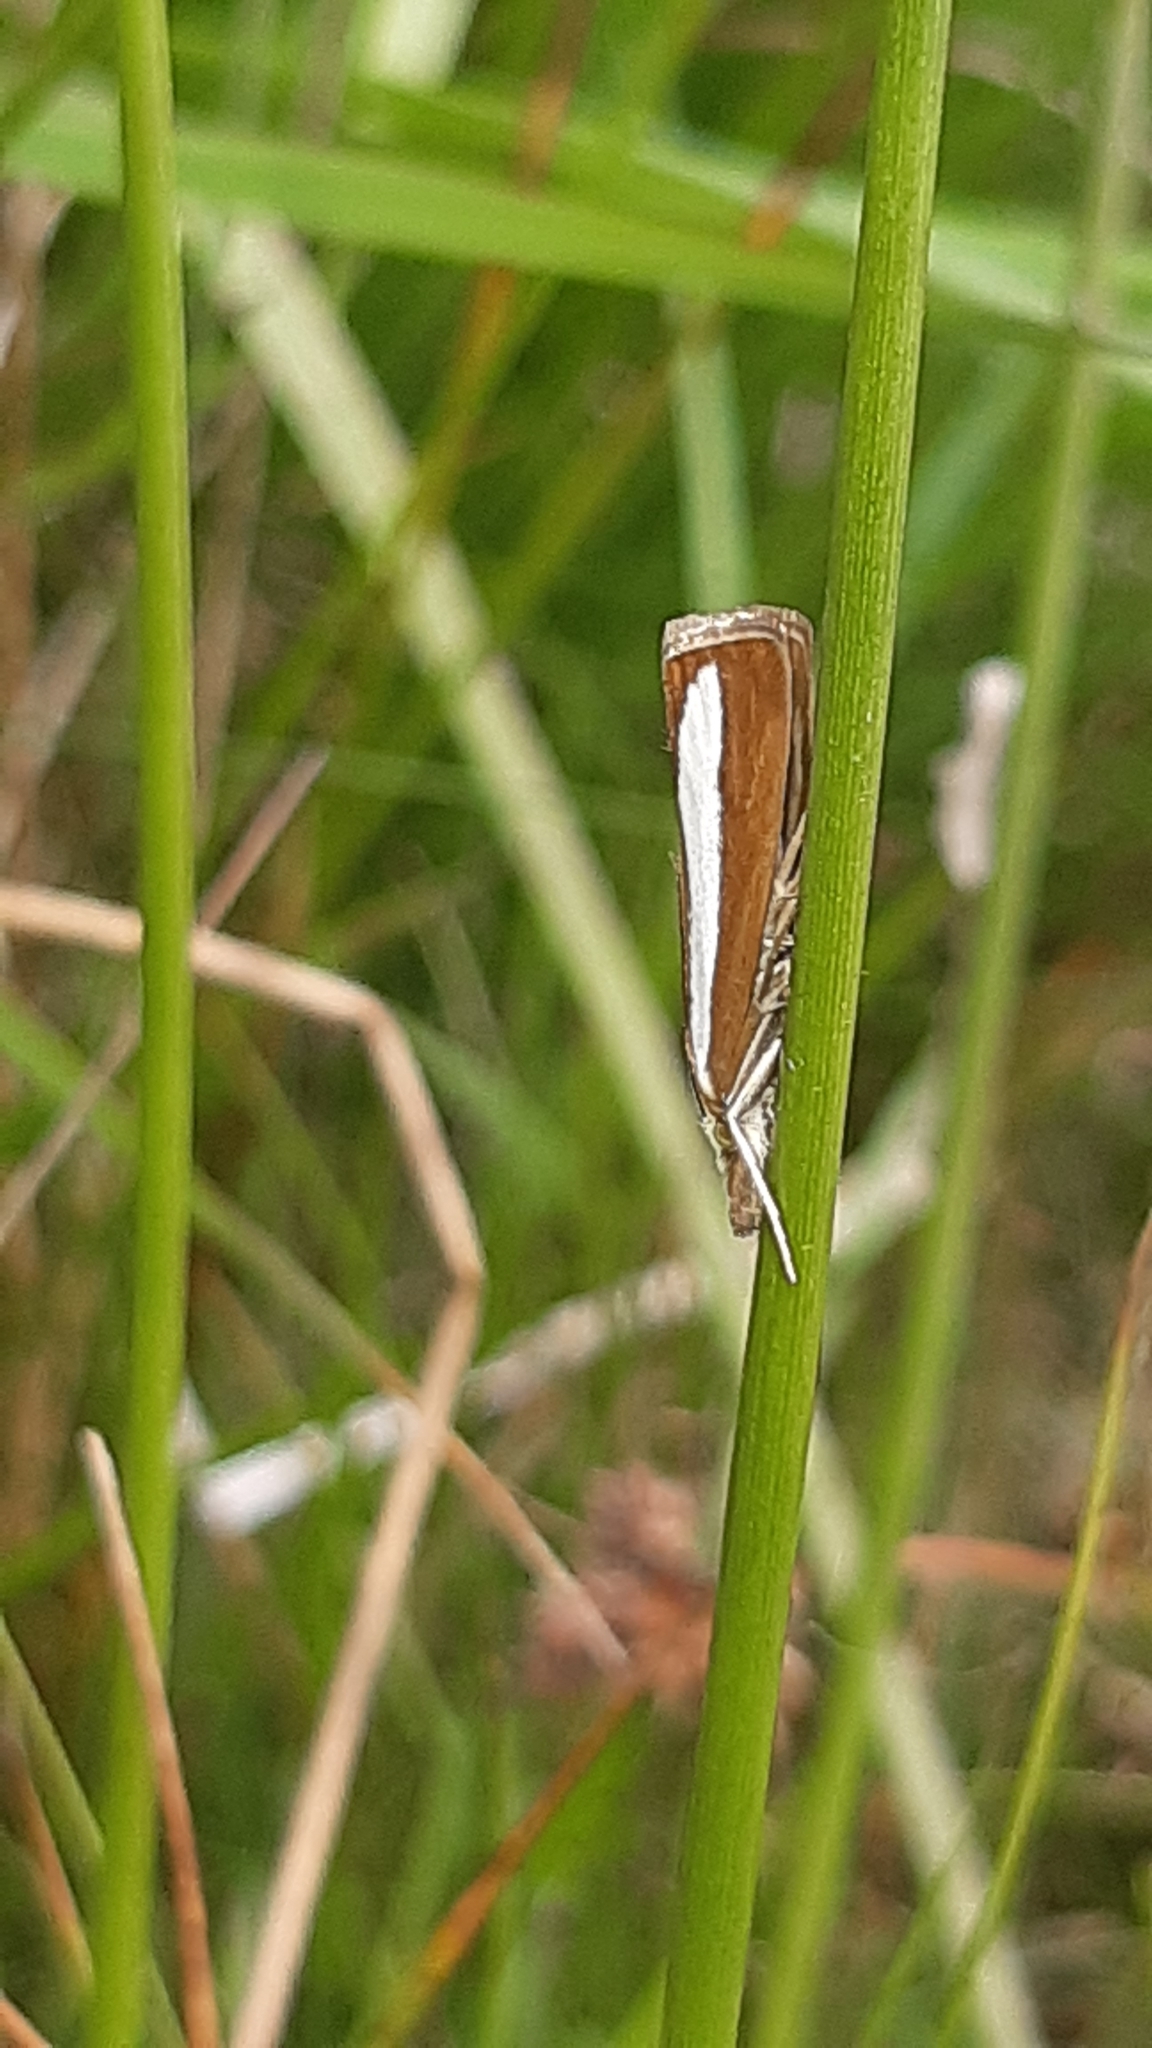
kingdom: Animalia
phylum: Arthropoda
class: Insecta
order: Lepidoptera
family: Crambidae
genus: Catoptria
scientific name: Catoptria margaritellus
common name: Pearl-band grass veneer
